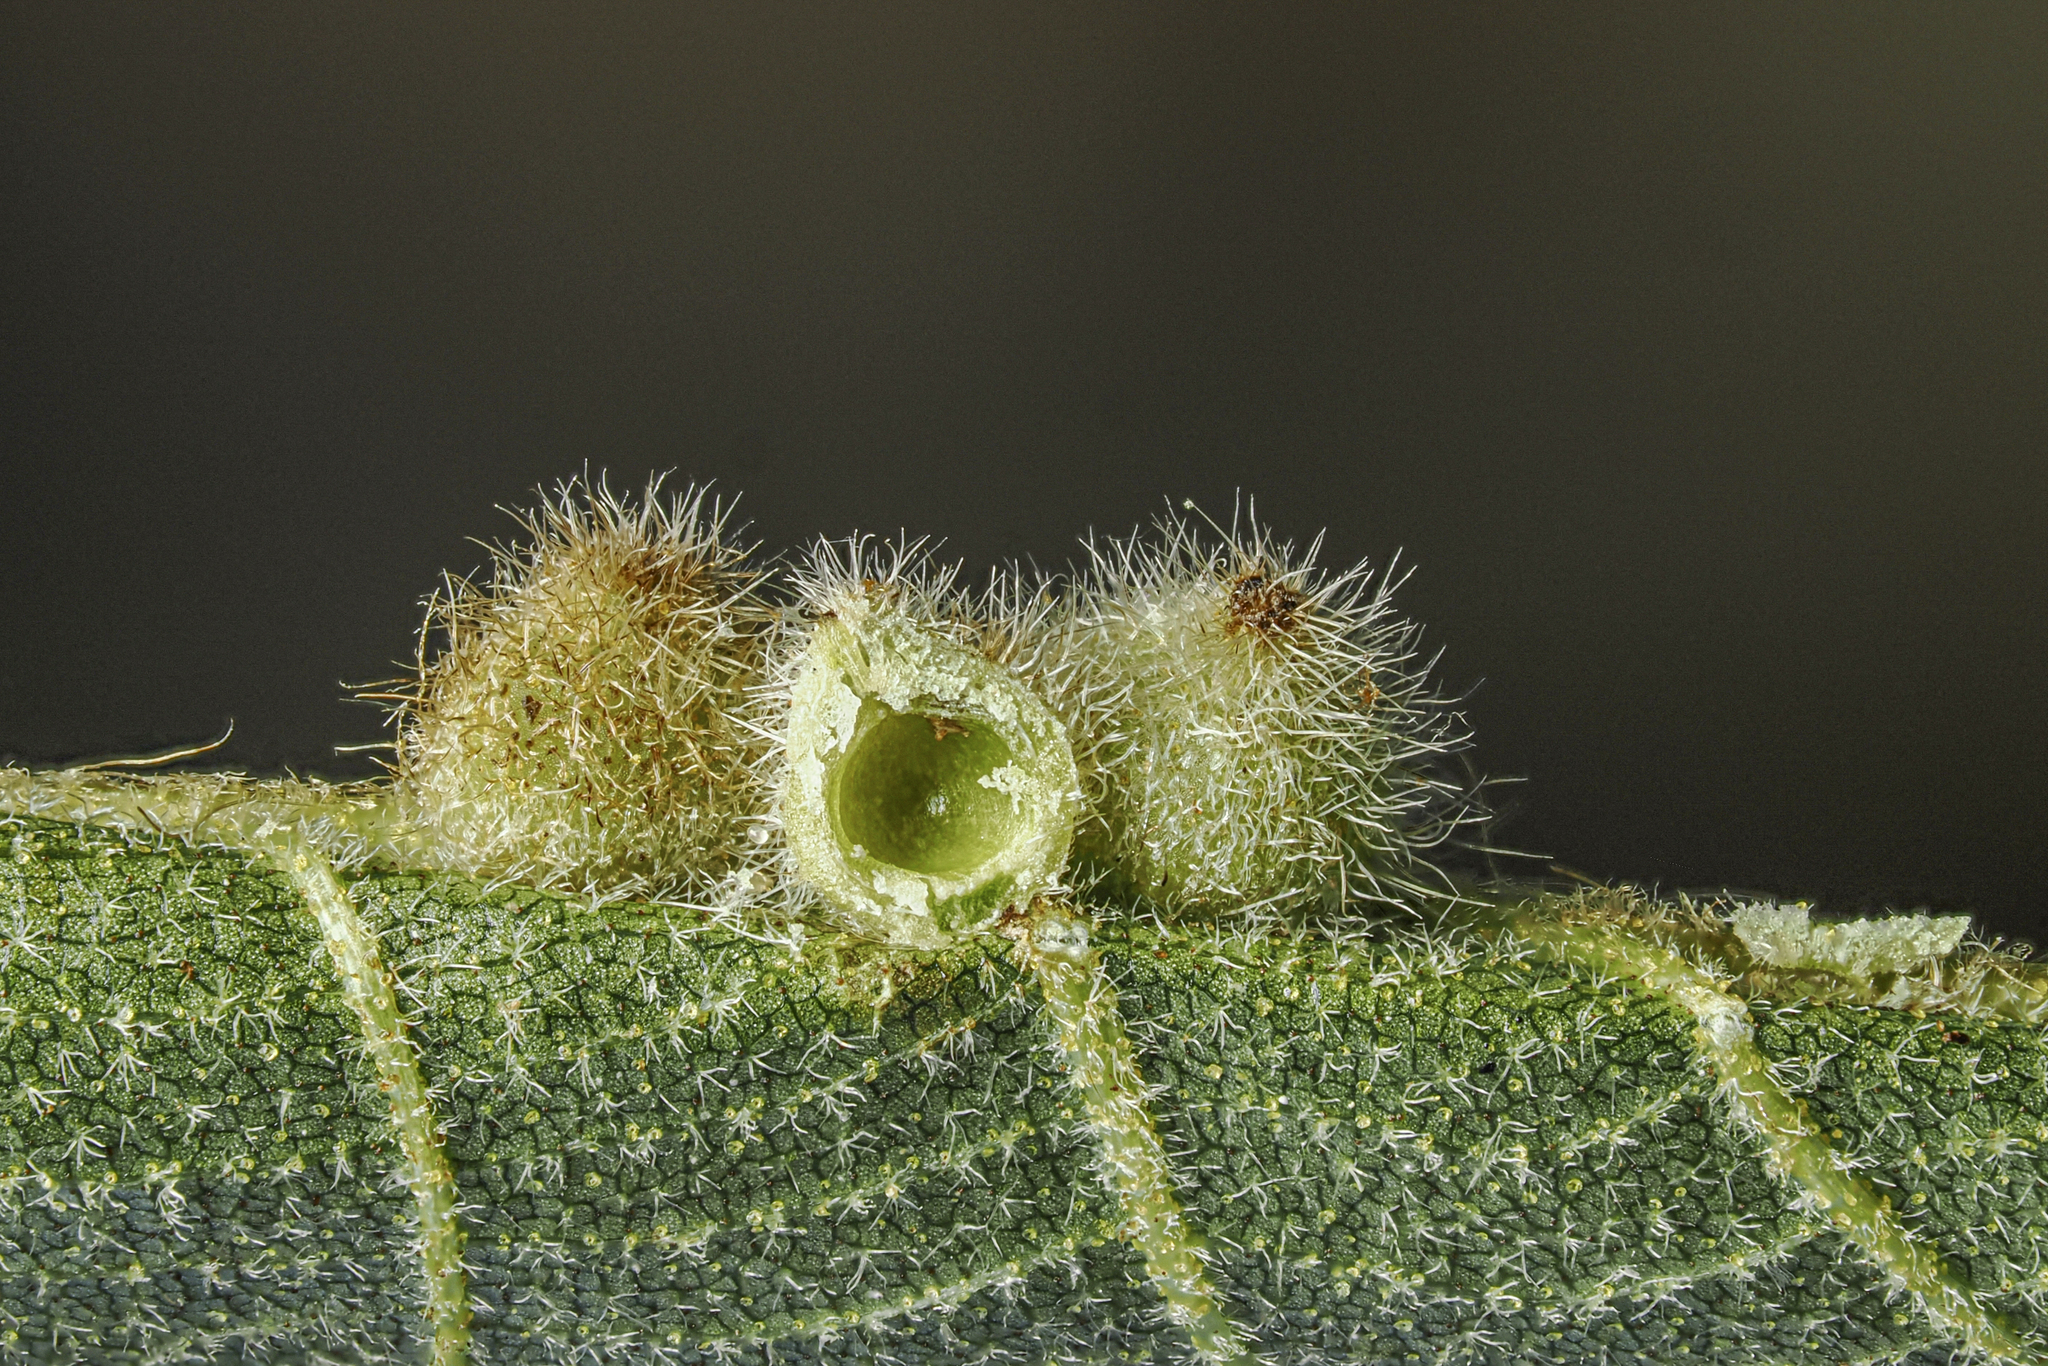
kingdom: Animalia
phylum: Arthropoda
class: Insecta
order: Diptera
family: Cecidomyiidae
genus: Caryomyia
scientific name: Caryomyia holotricha
